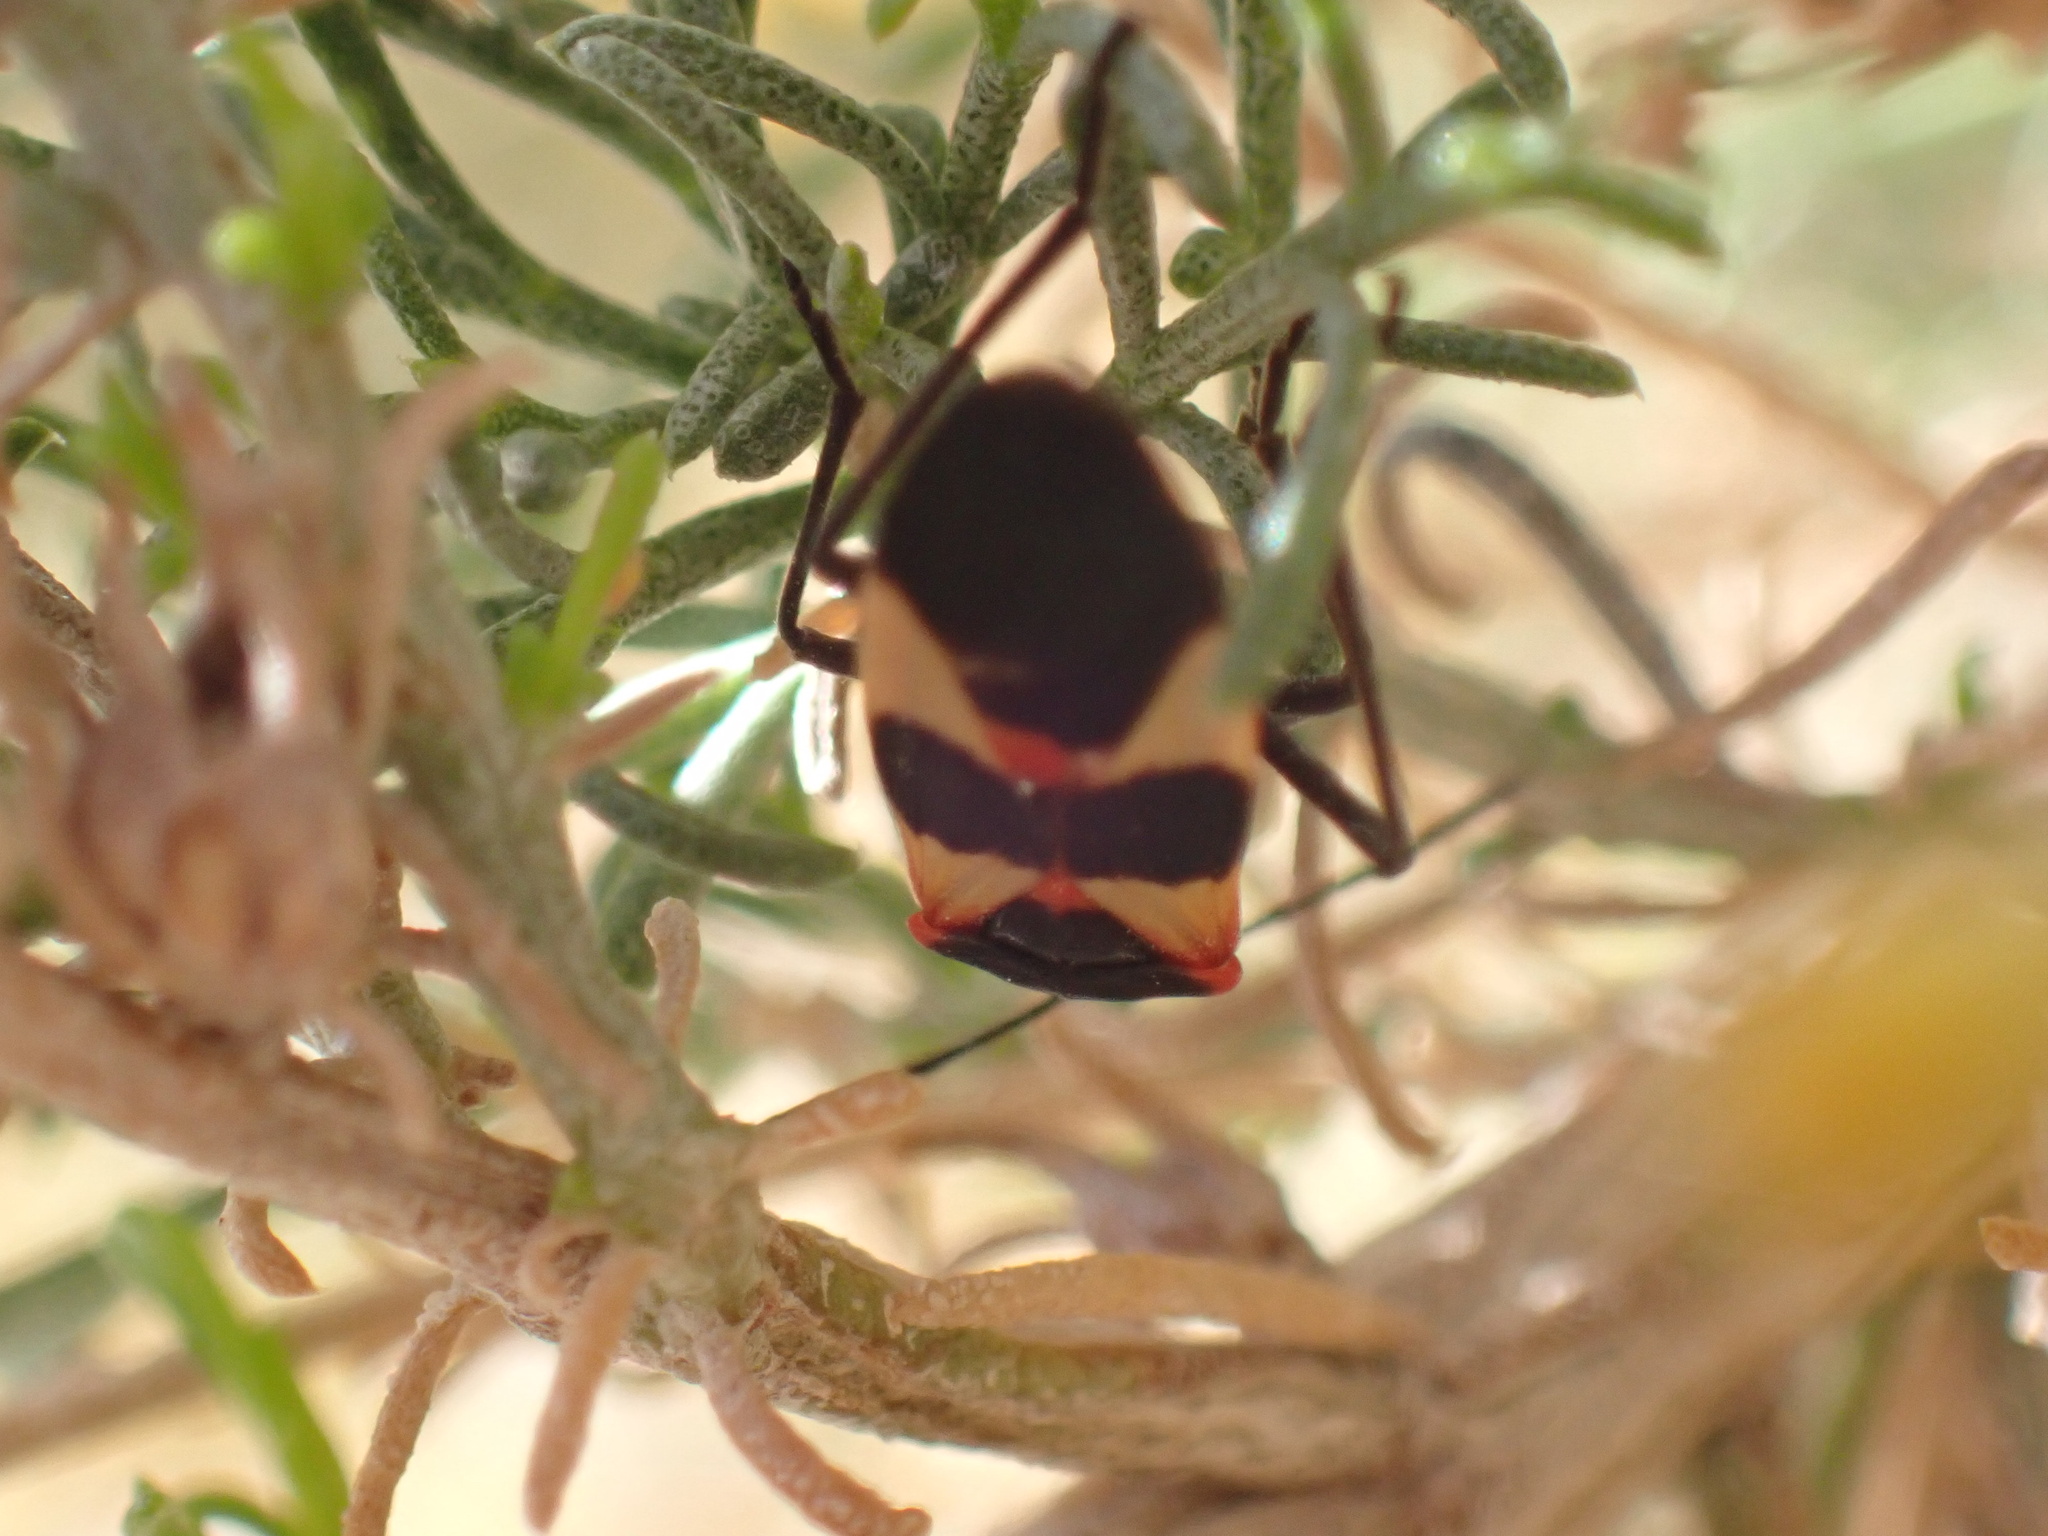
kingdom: Animalia
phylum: Arthropoda
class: Insecta
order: Hemiptera
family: Lygaeidae
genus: Oncopeltus
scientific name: Oncopeltus fasciatus
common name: Large milkweed bug
